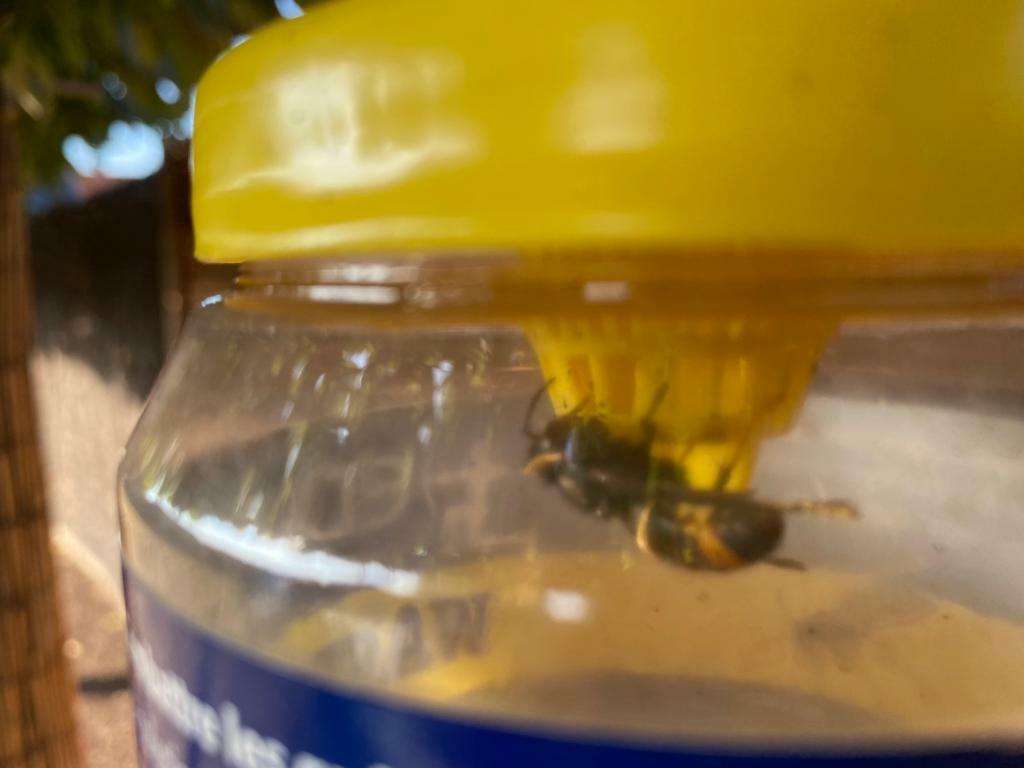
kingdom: Animalia
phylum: Arthropoda
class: Insecta
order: Hymenoptera
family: Vespidae
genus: Vespa
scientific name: Vespa velutina
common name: Asian hornet
